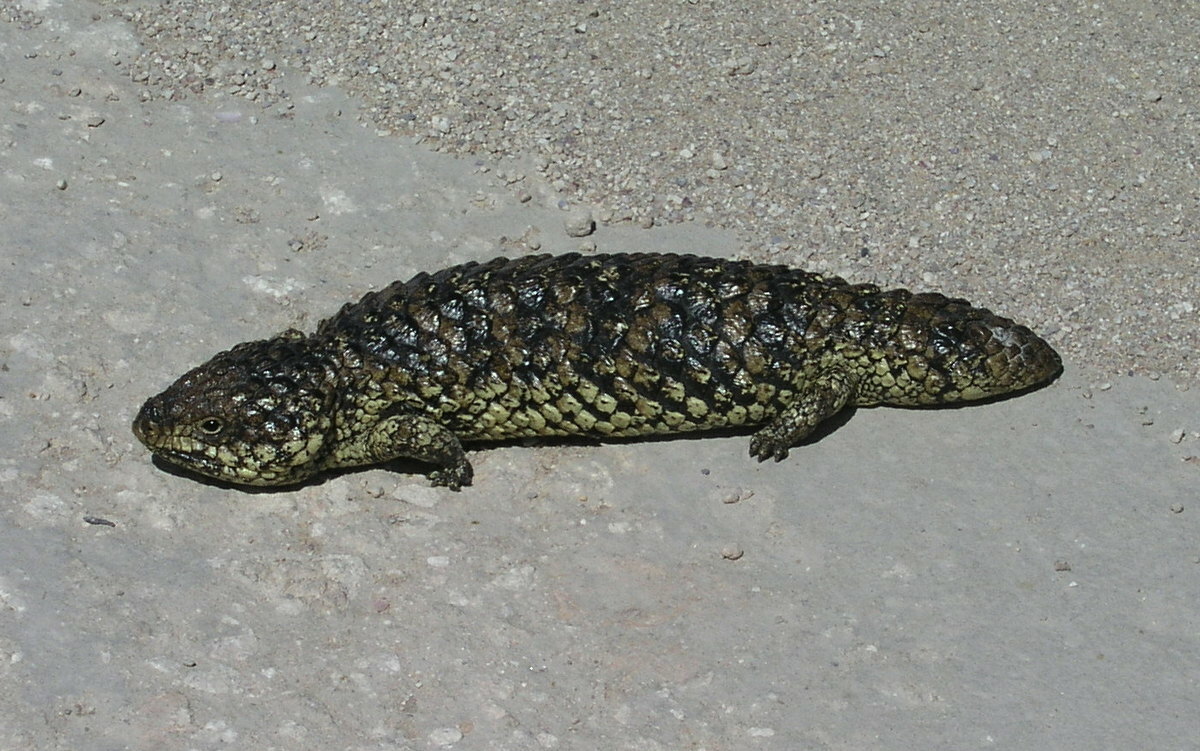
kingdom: Animalia
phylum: Chordata
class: Squamata
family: Scincidae
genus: Tiliqua
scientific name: Tiliqua rugosa
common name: Pinecone lizard
